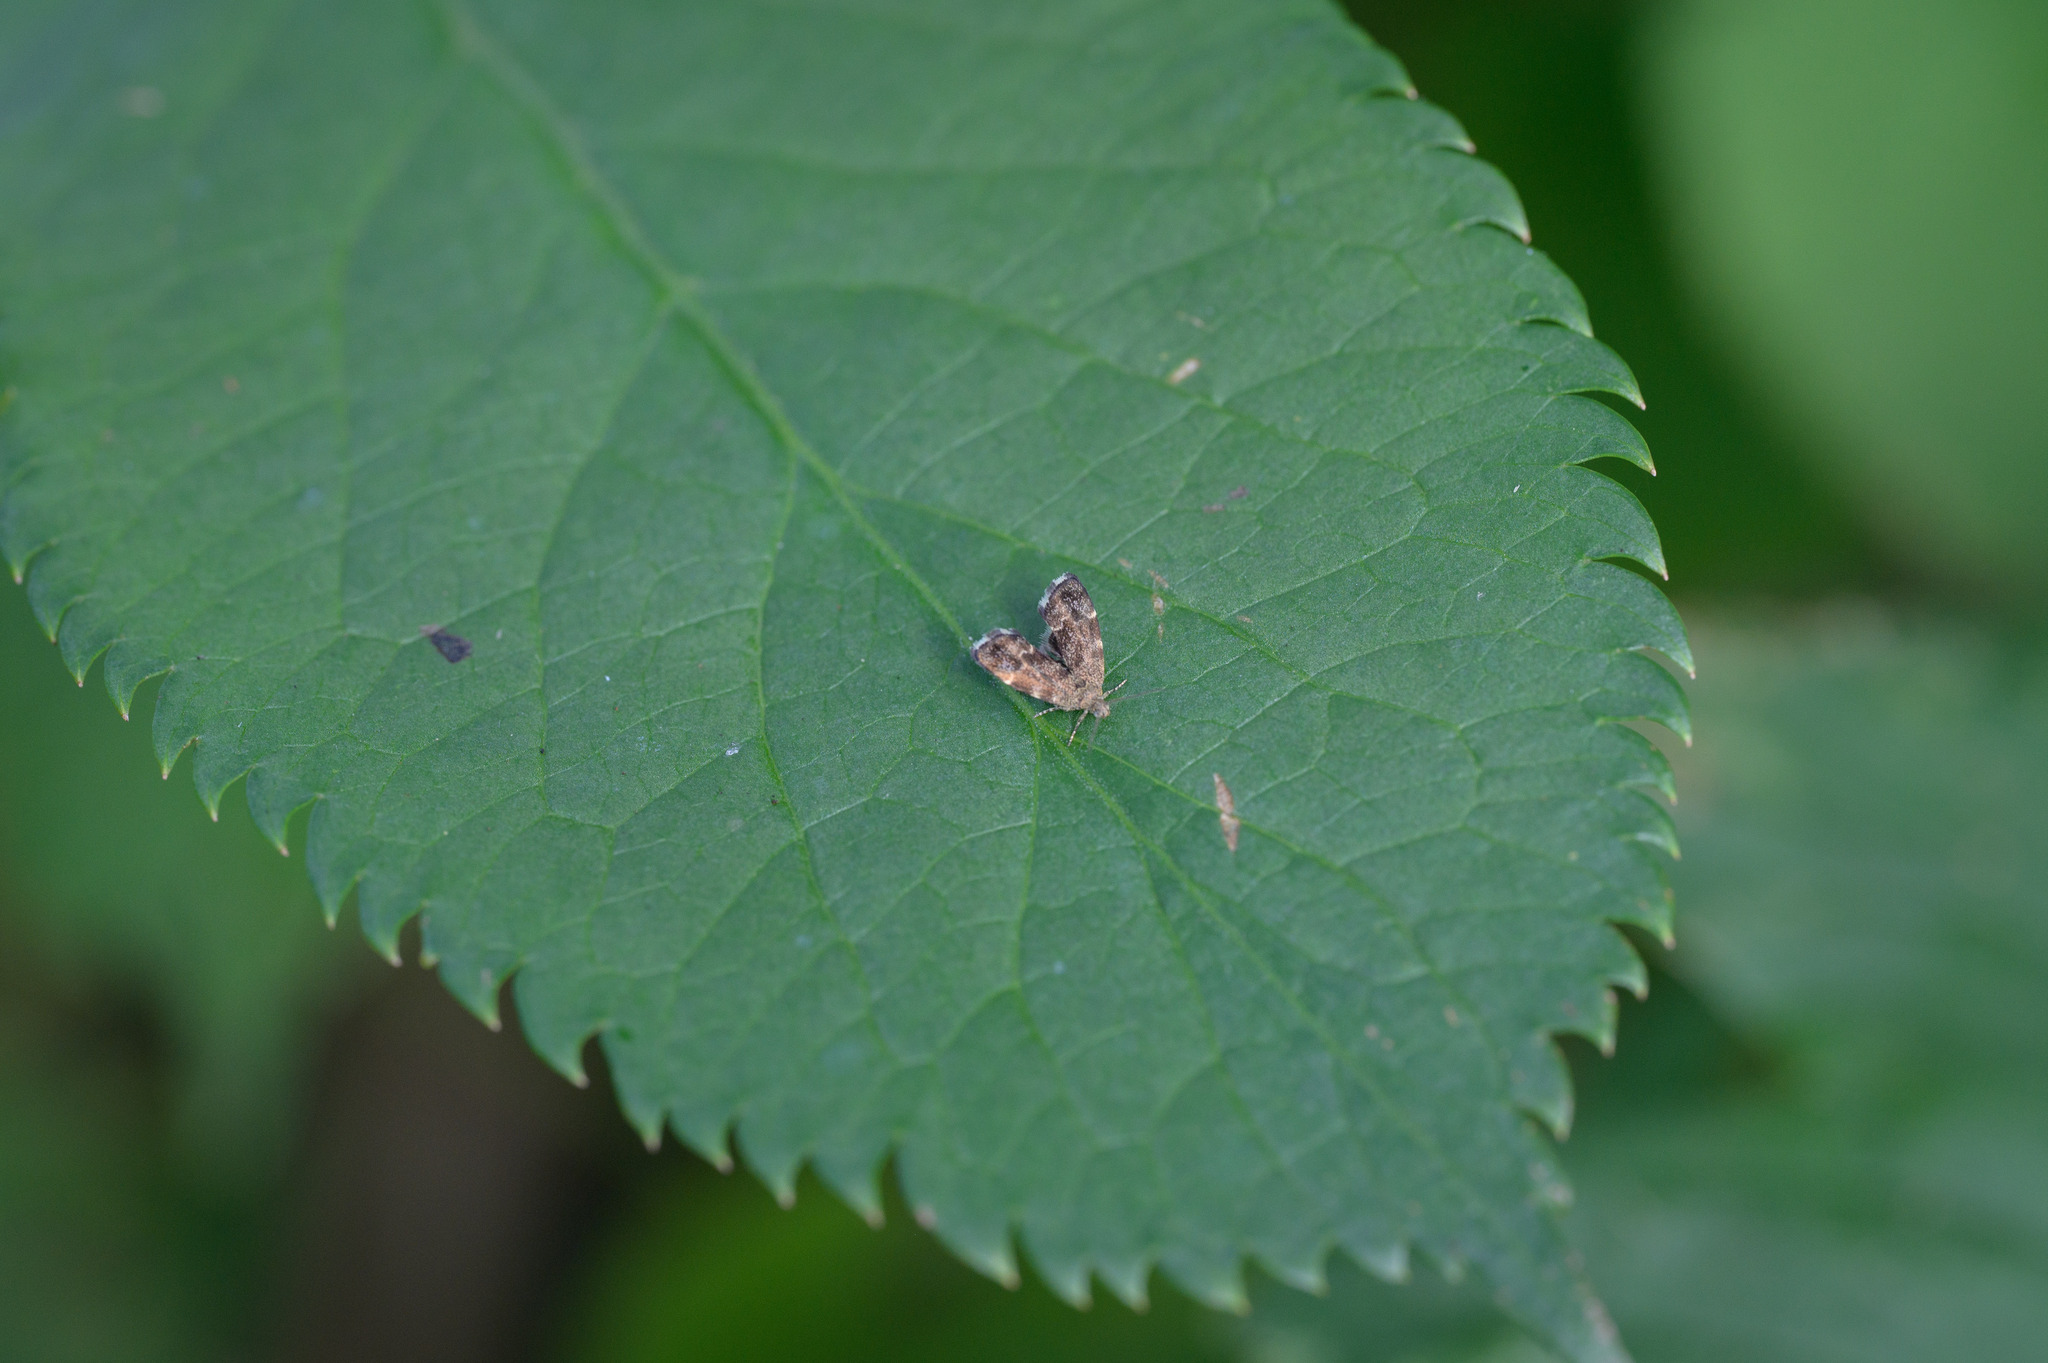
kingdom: Animalia
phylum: Arthropoda
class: Insecta
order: Lepidoptera
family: Choreutidae
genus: Anthophila
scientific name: Anthophila fabriciana
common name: Nettle-tap
